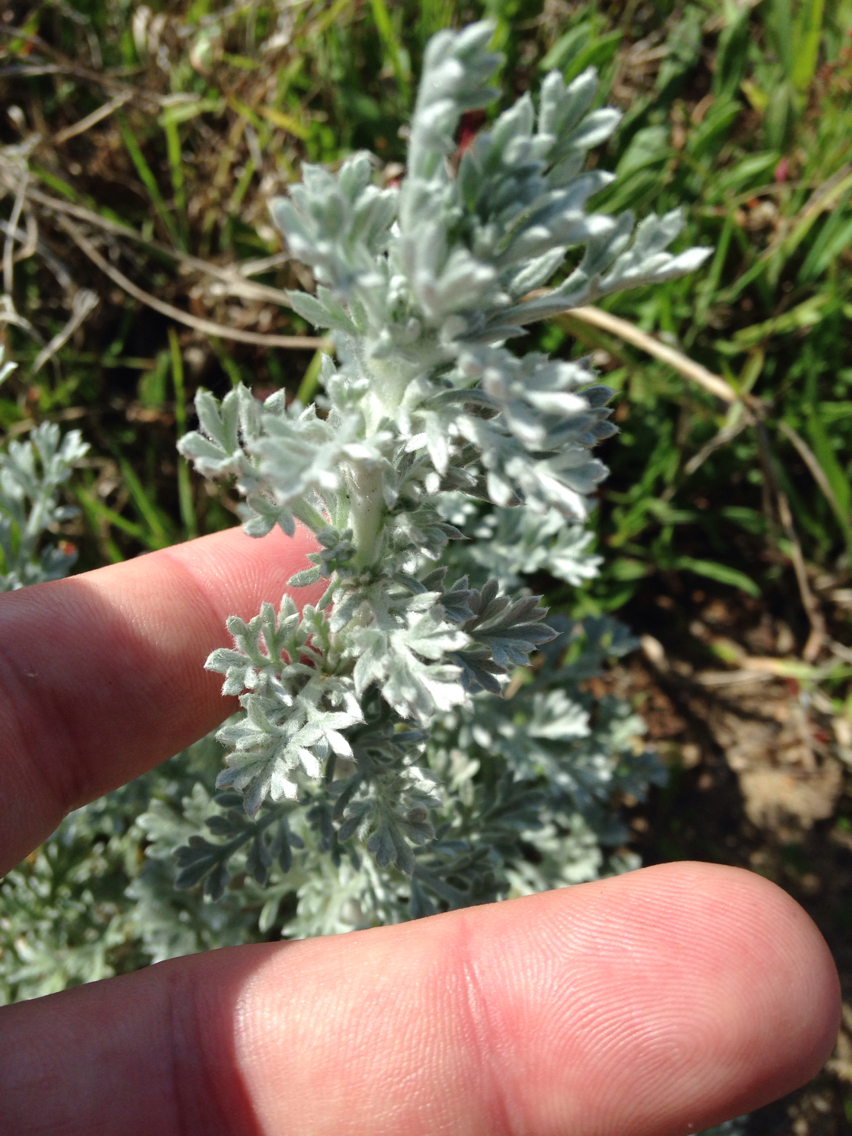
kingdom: Plantae
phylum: Tracheophyta
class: Magnoliopsida
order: Asterales
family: Asteraceae
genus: Artemisia
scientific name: Artemisia pycnocephala
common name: Coastal sagewort
